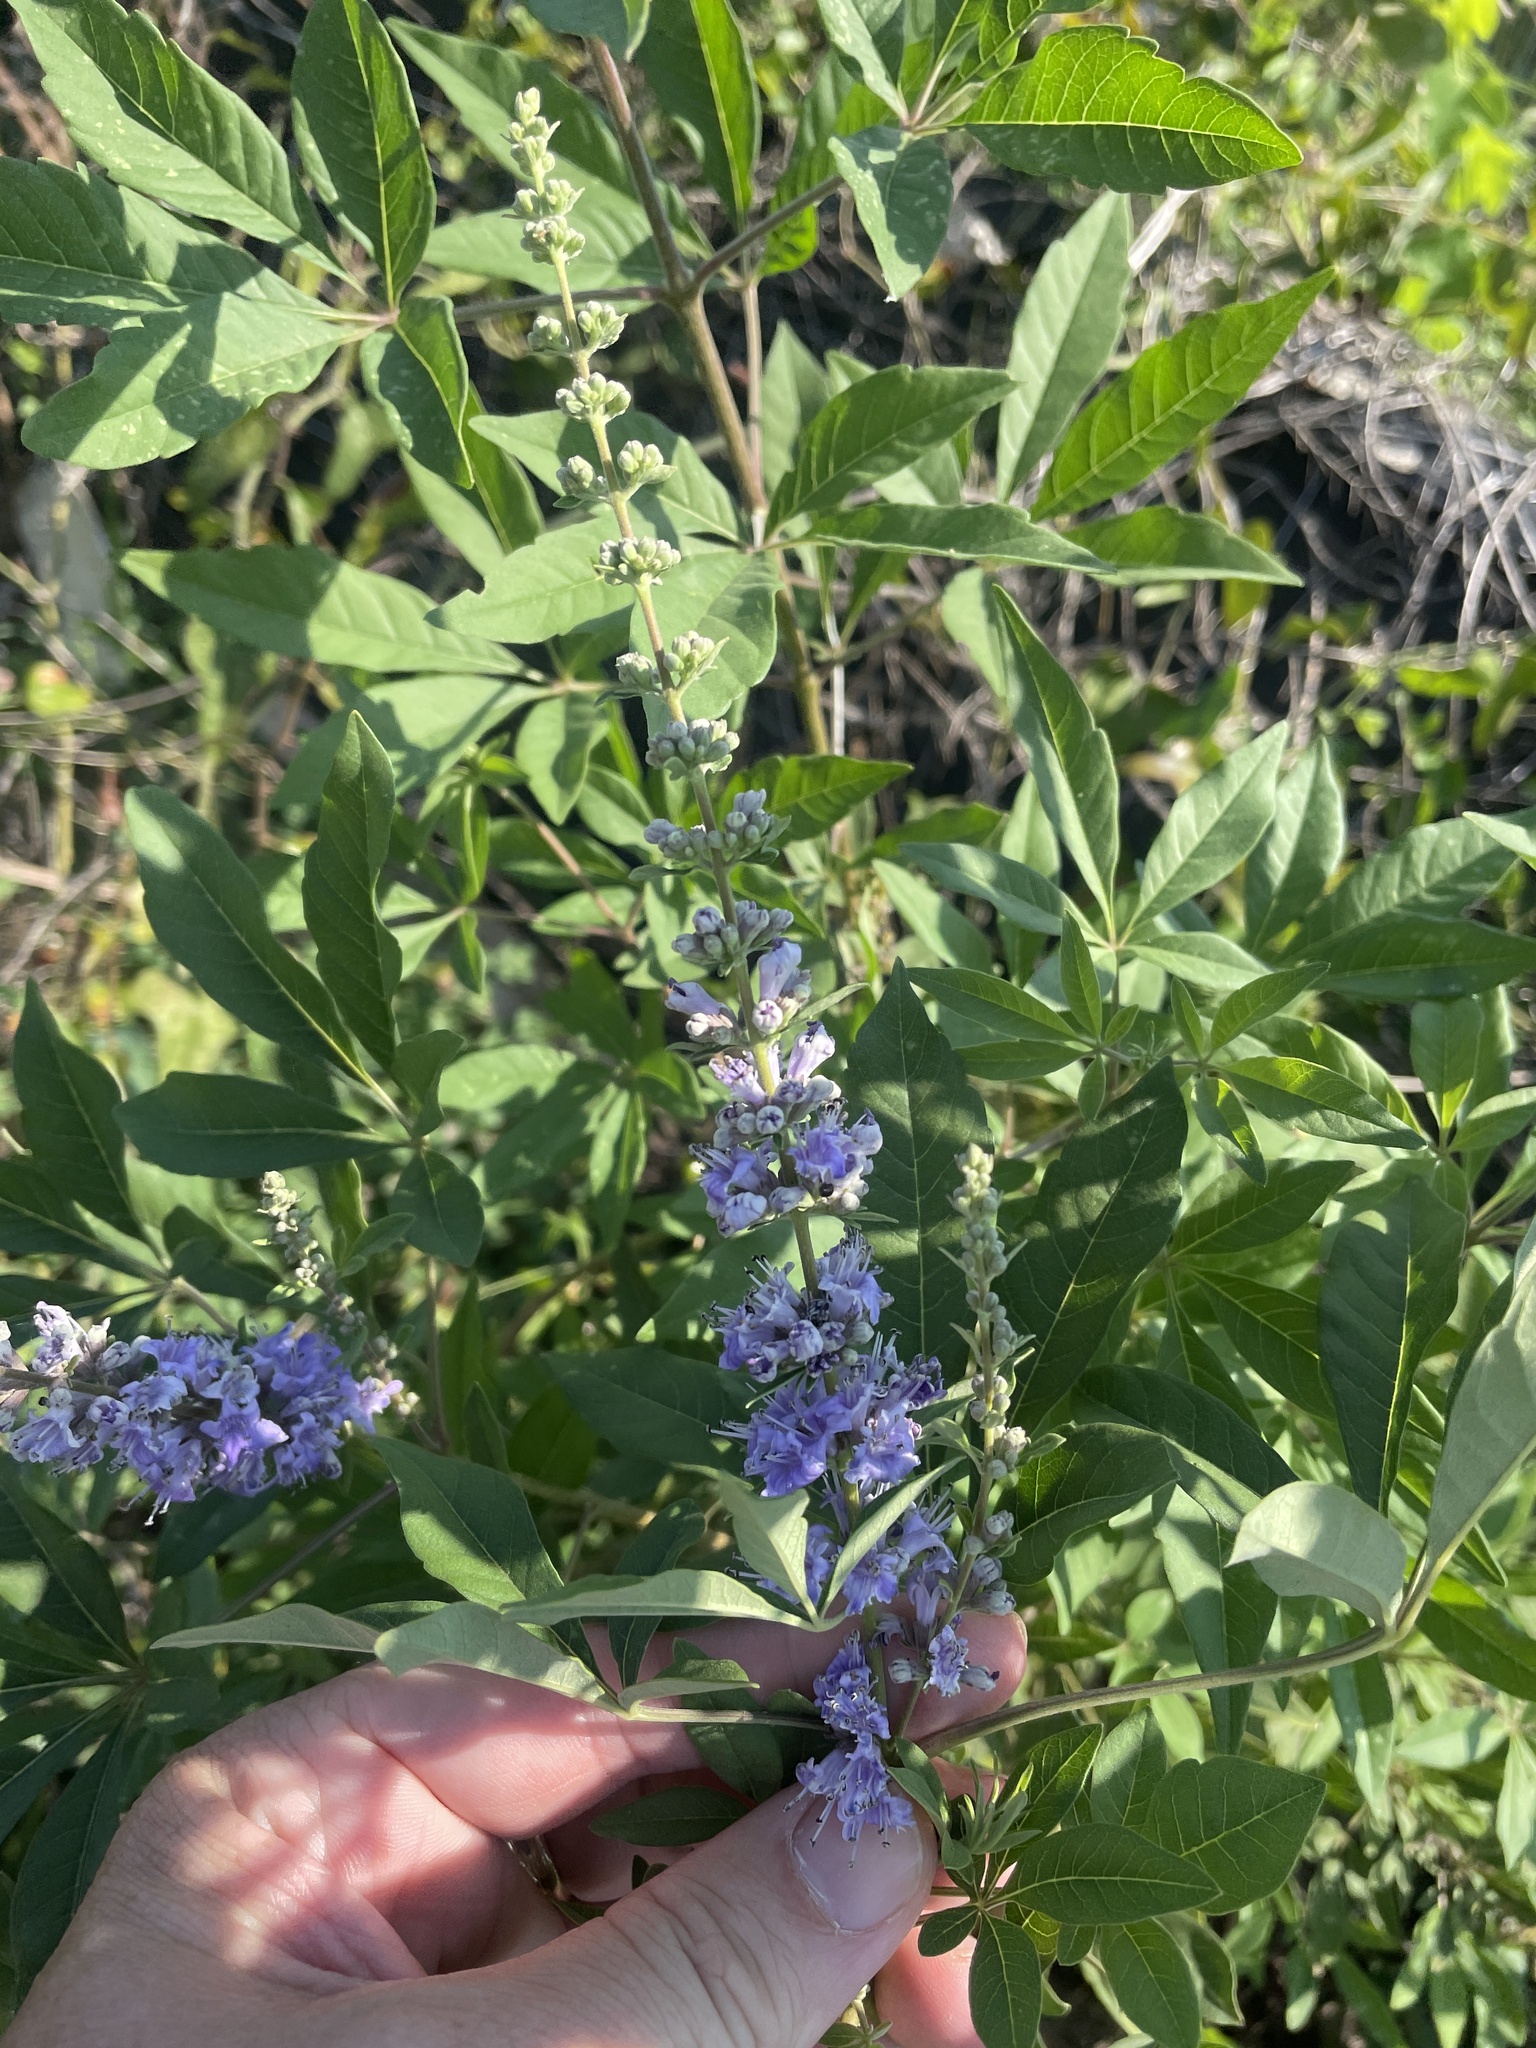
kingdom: Plantae
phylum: Tracheophyta
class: Magnoliopsida
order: Lamiales
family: Lamiaceae
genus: Vitex
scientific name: Vitex agnus-castus
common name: Chasteberry
